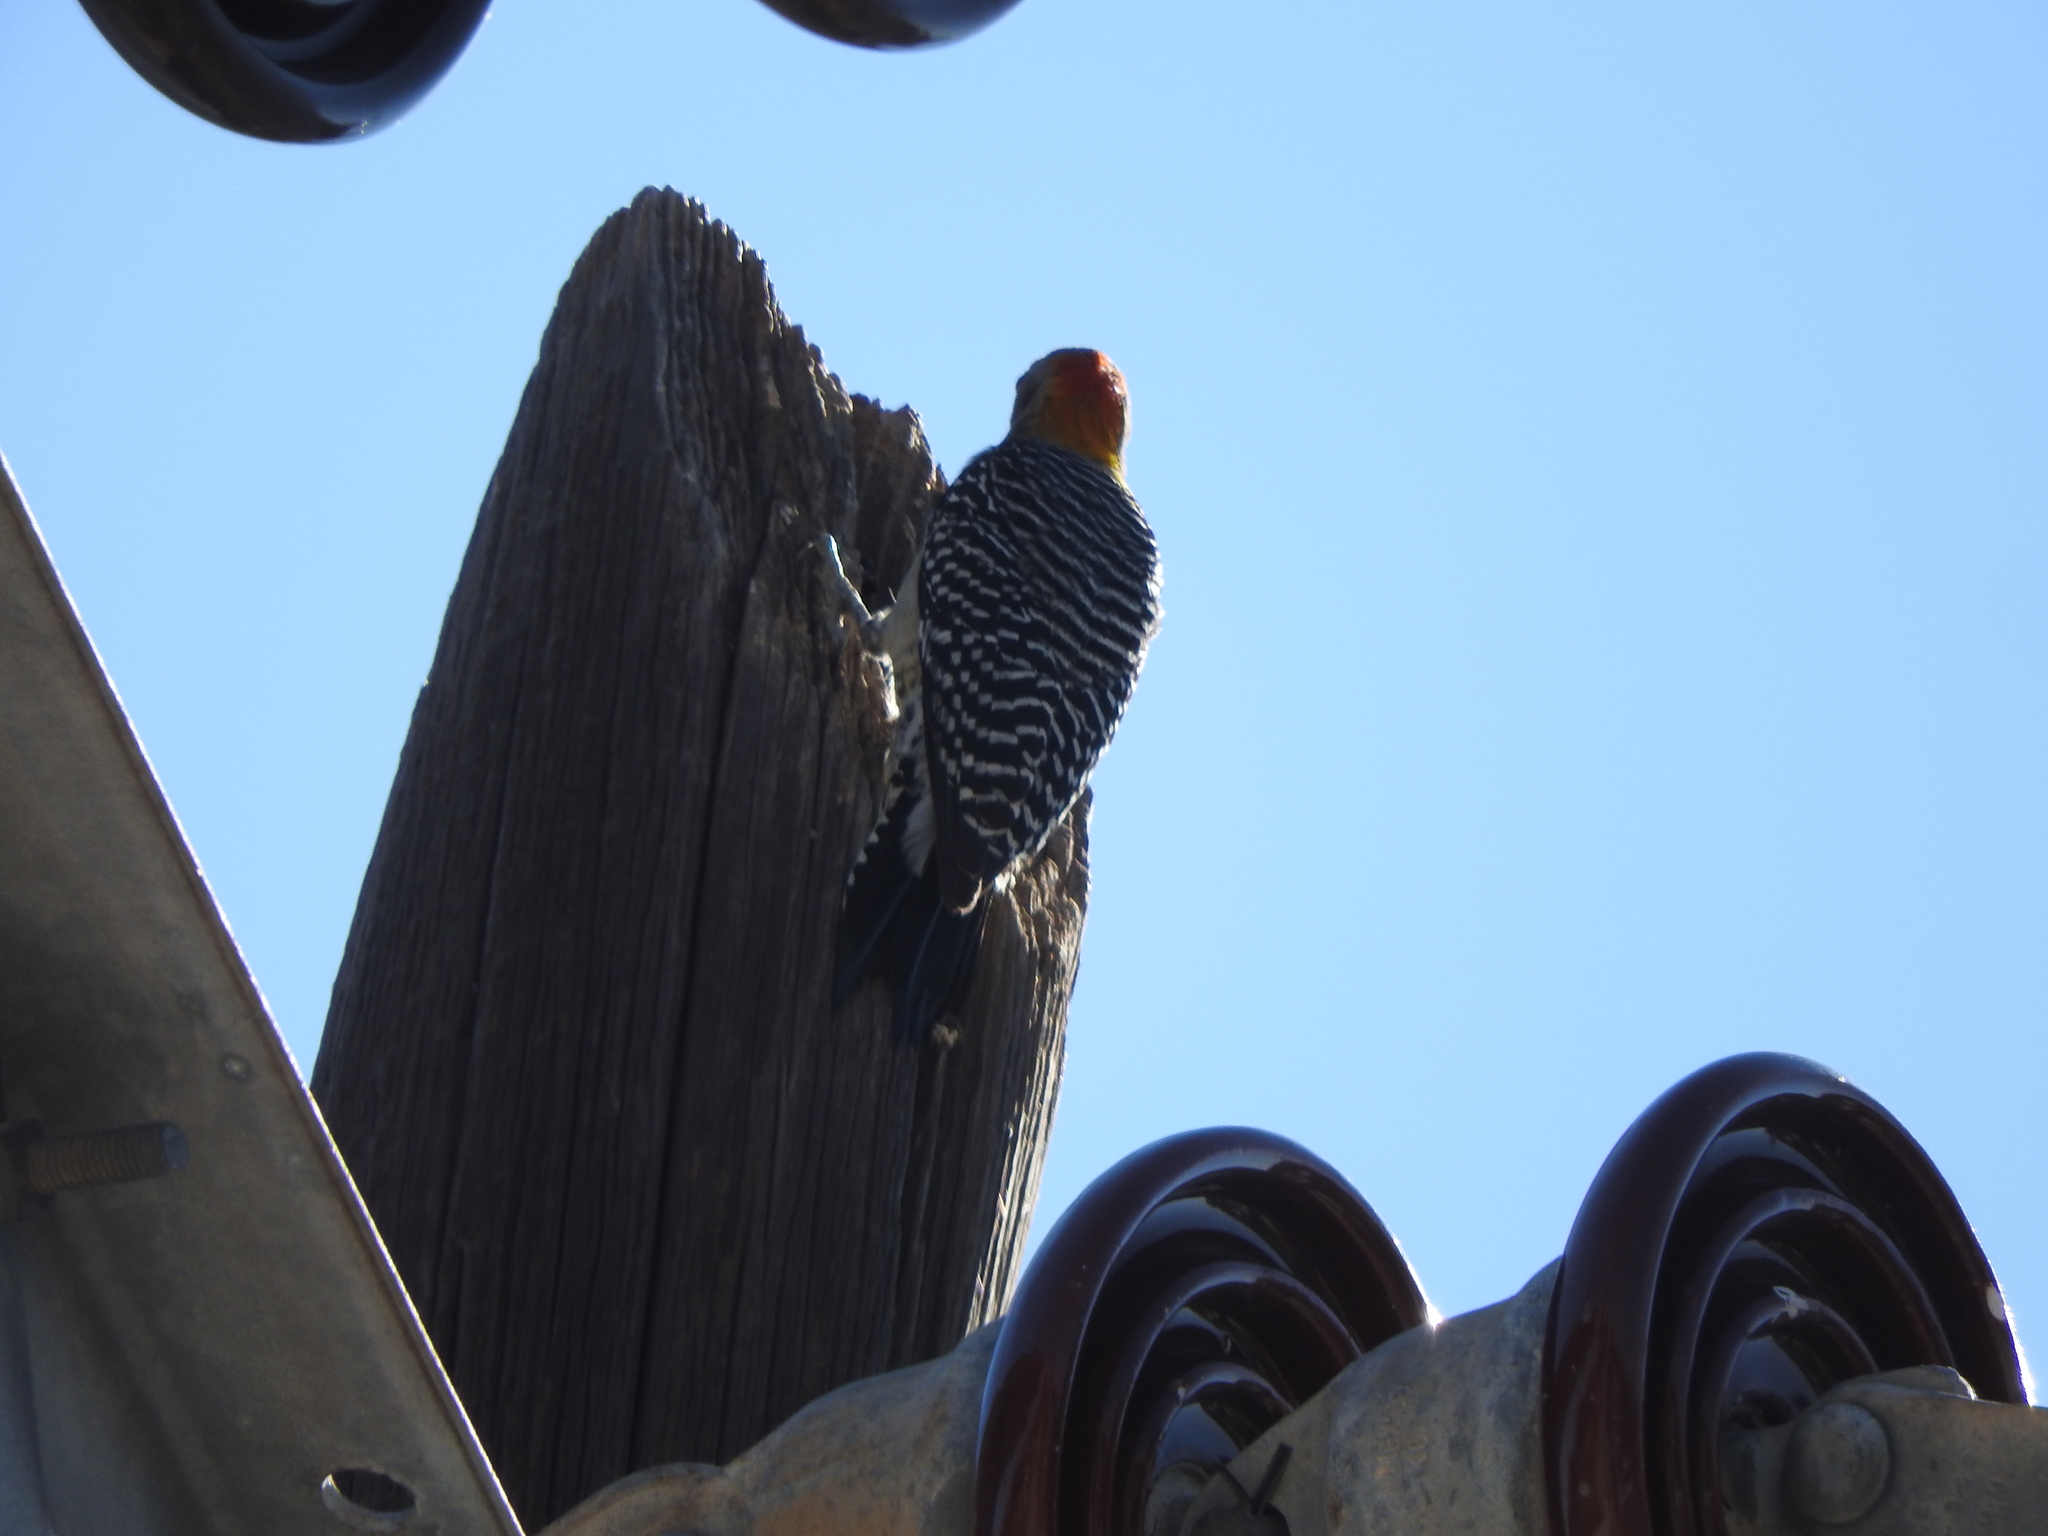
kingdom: Animalia
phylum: Chordata
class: Aves
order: Piciformes
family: Picidae
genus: Melanerpes
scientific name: Melanerpes aurifrons
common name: Golden-fronted woodpecker
